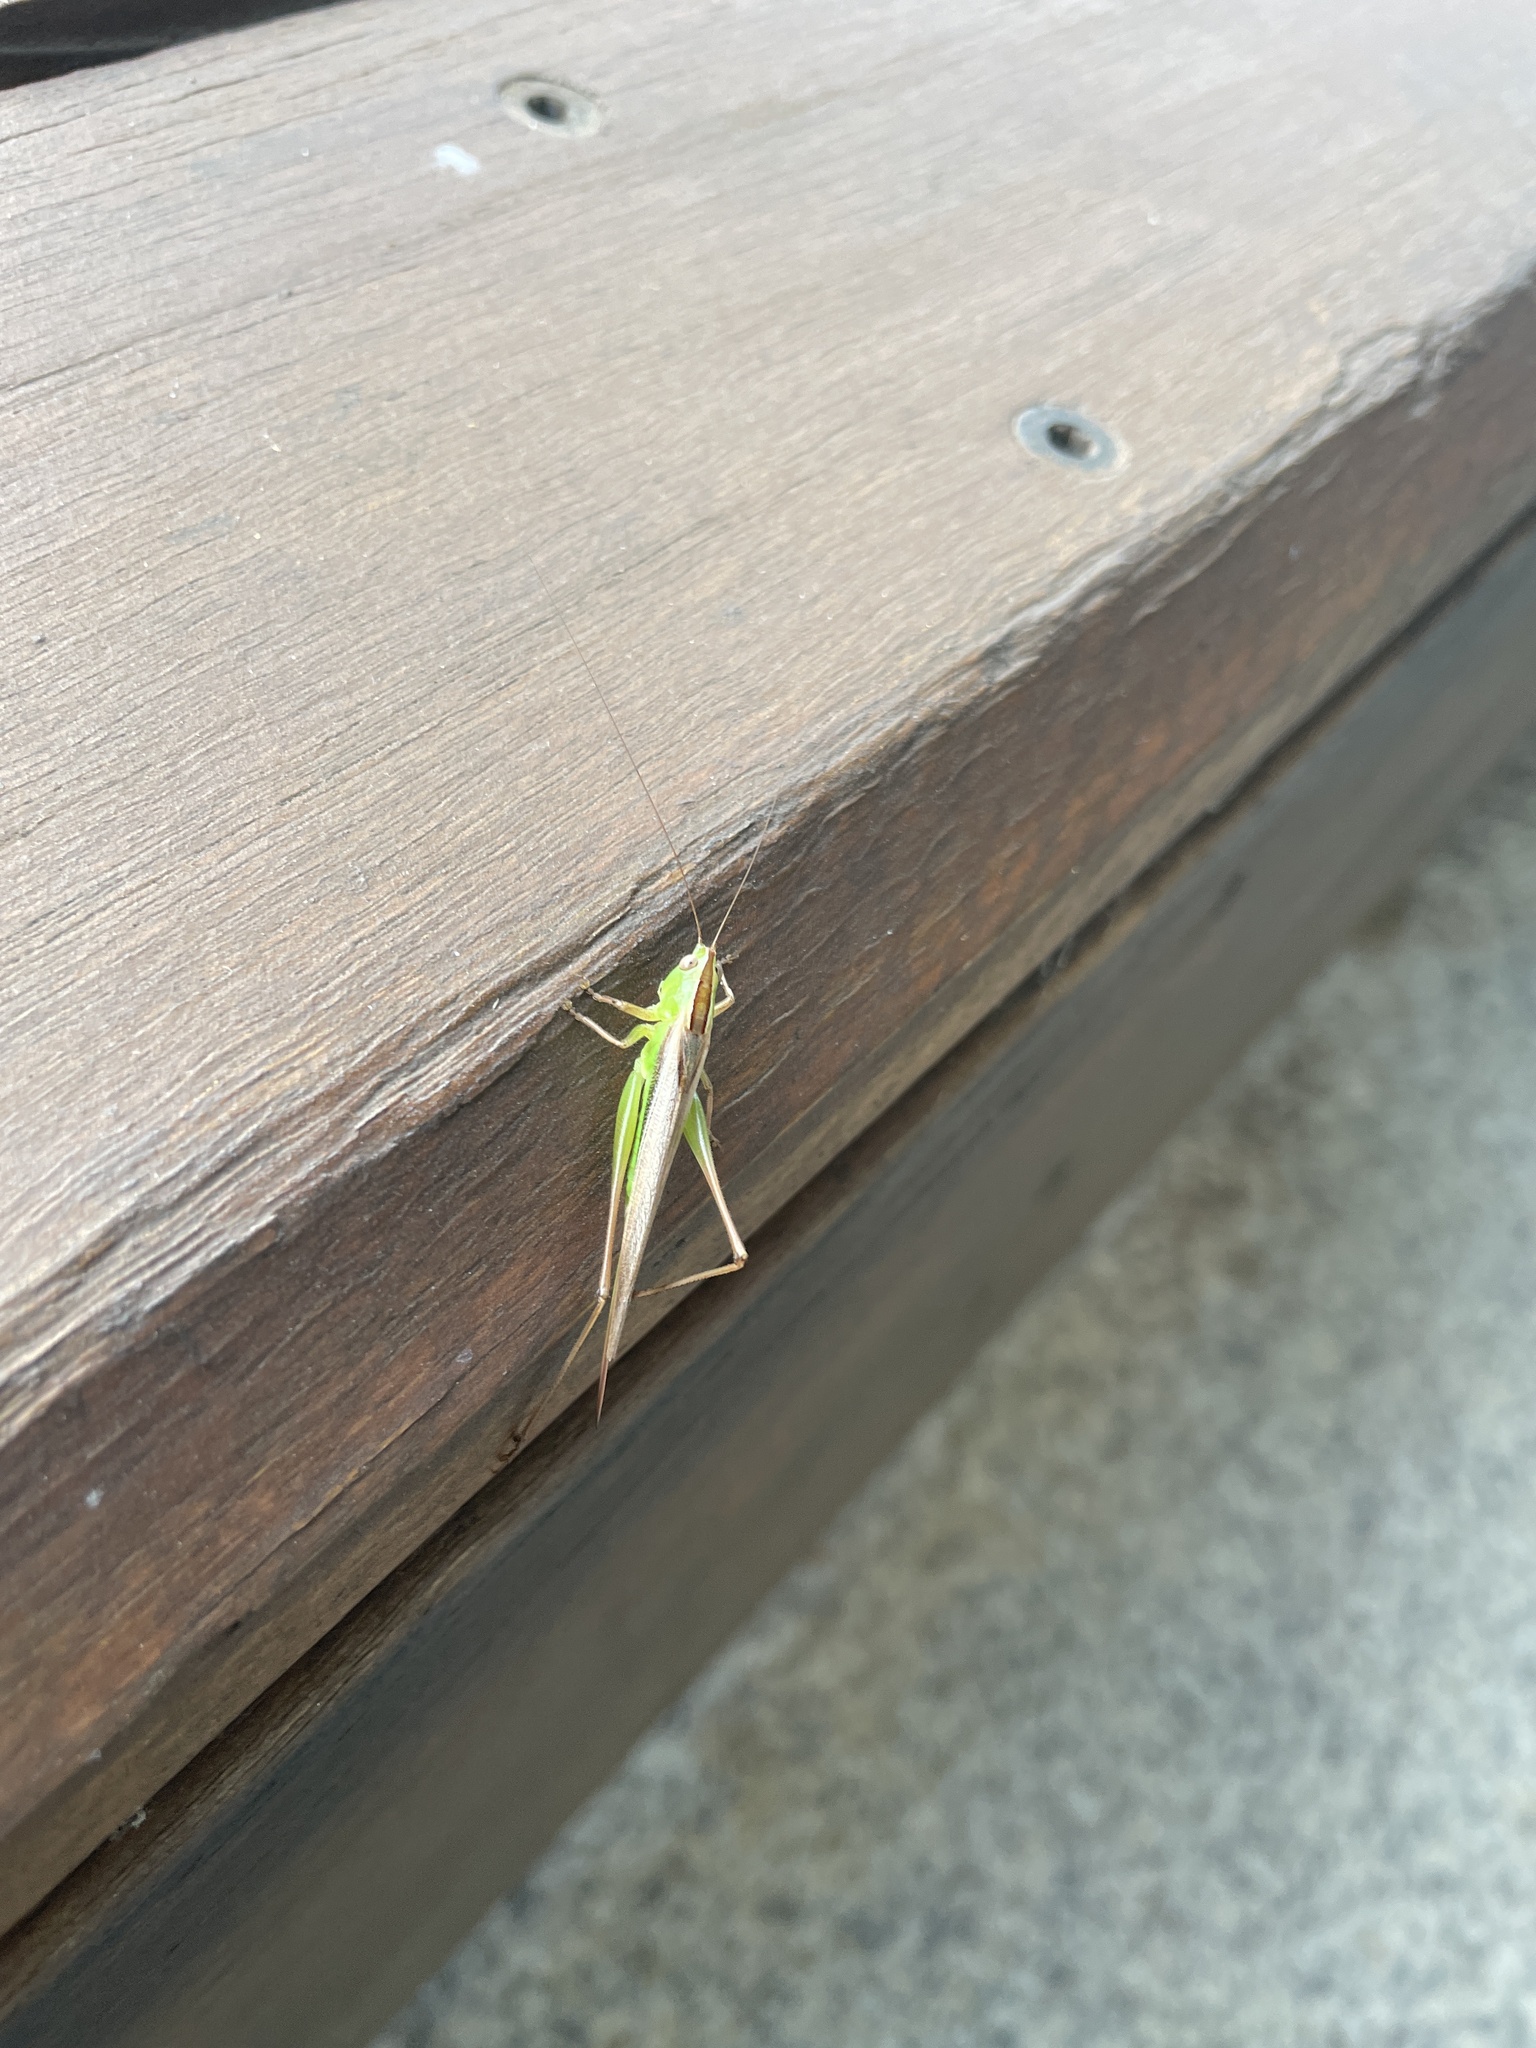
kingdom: Animalia
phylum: Arthropoda
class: Insecta
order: Orthoptera
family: Tettigoniidae
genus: Conocephalus
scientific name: Conocephalus albescens
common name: Whitish meadow katydid
